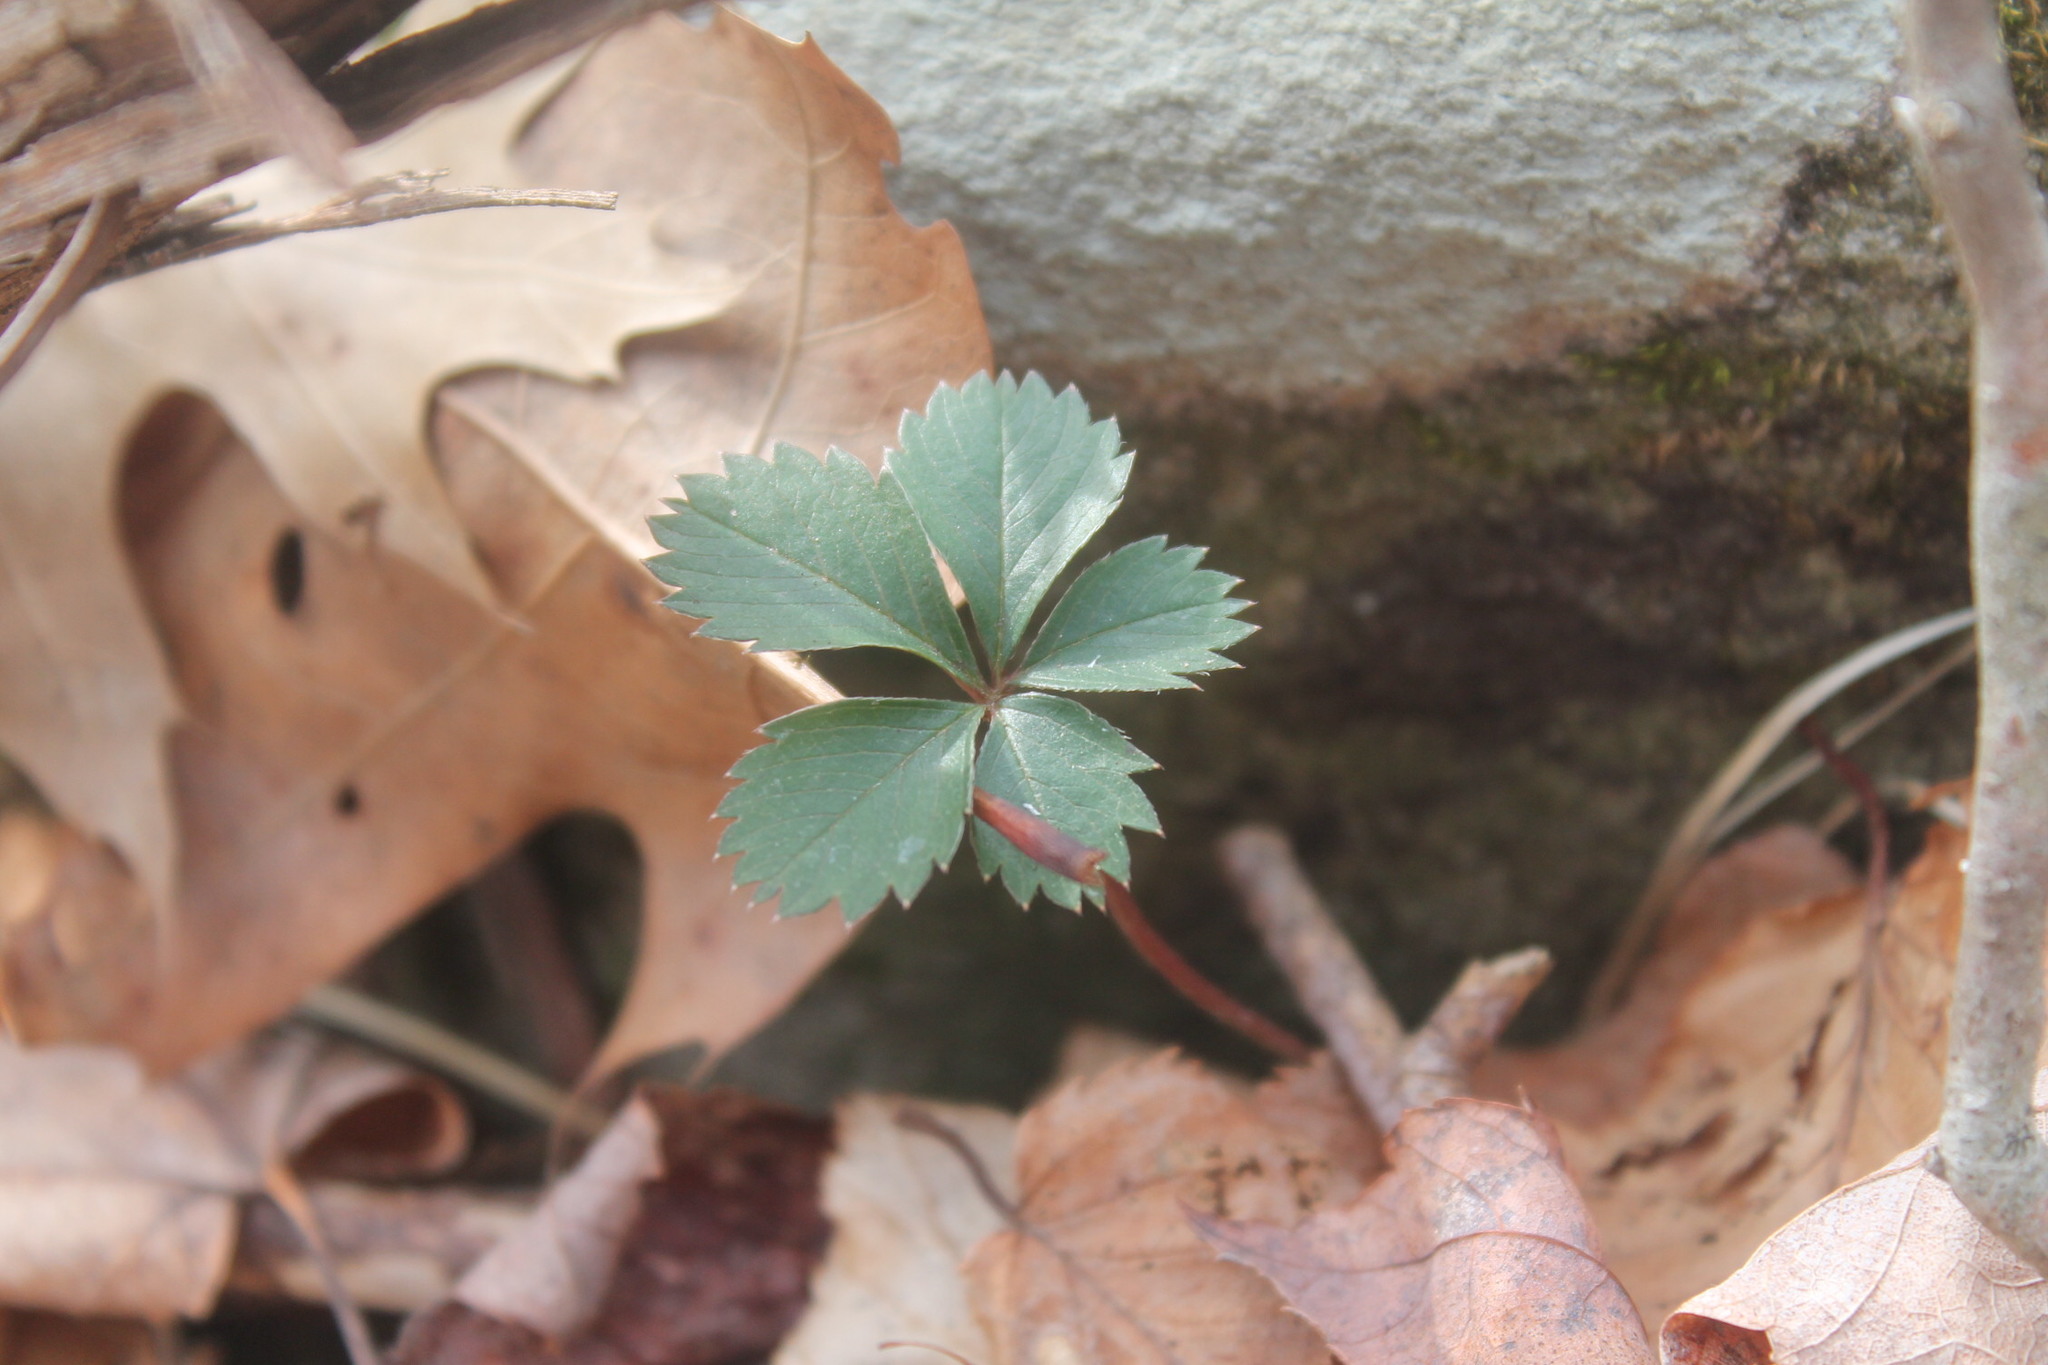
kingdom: Plantae
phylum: Tracheophyta
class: Magnoliopsida
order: Rosales
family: Rosaceae
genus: Potentilla
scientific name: Potentilla canadensis
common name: Canada cinquefoil
